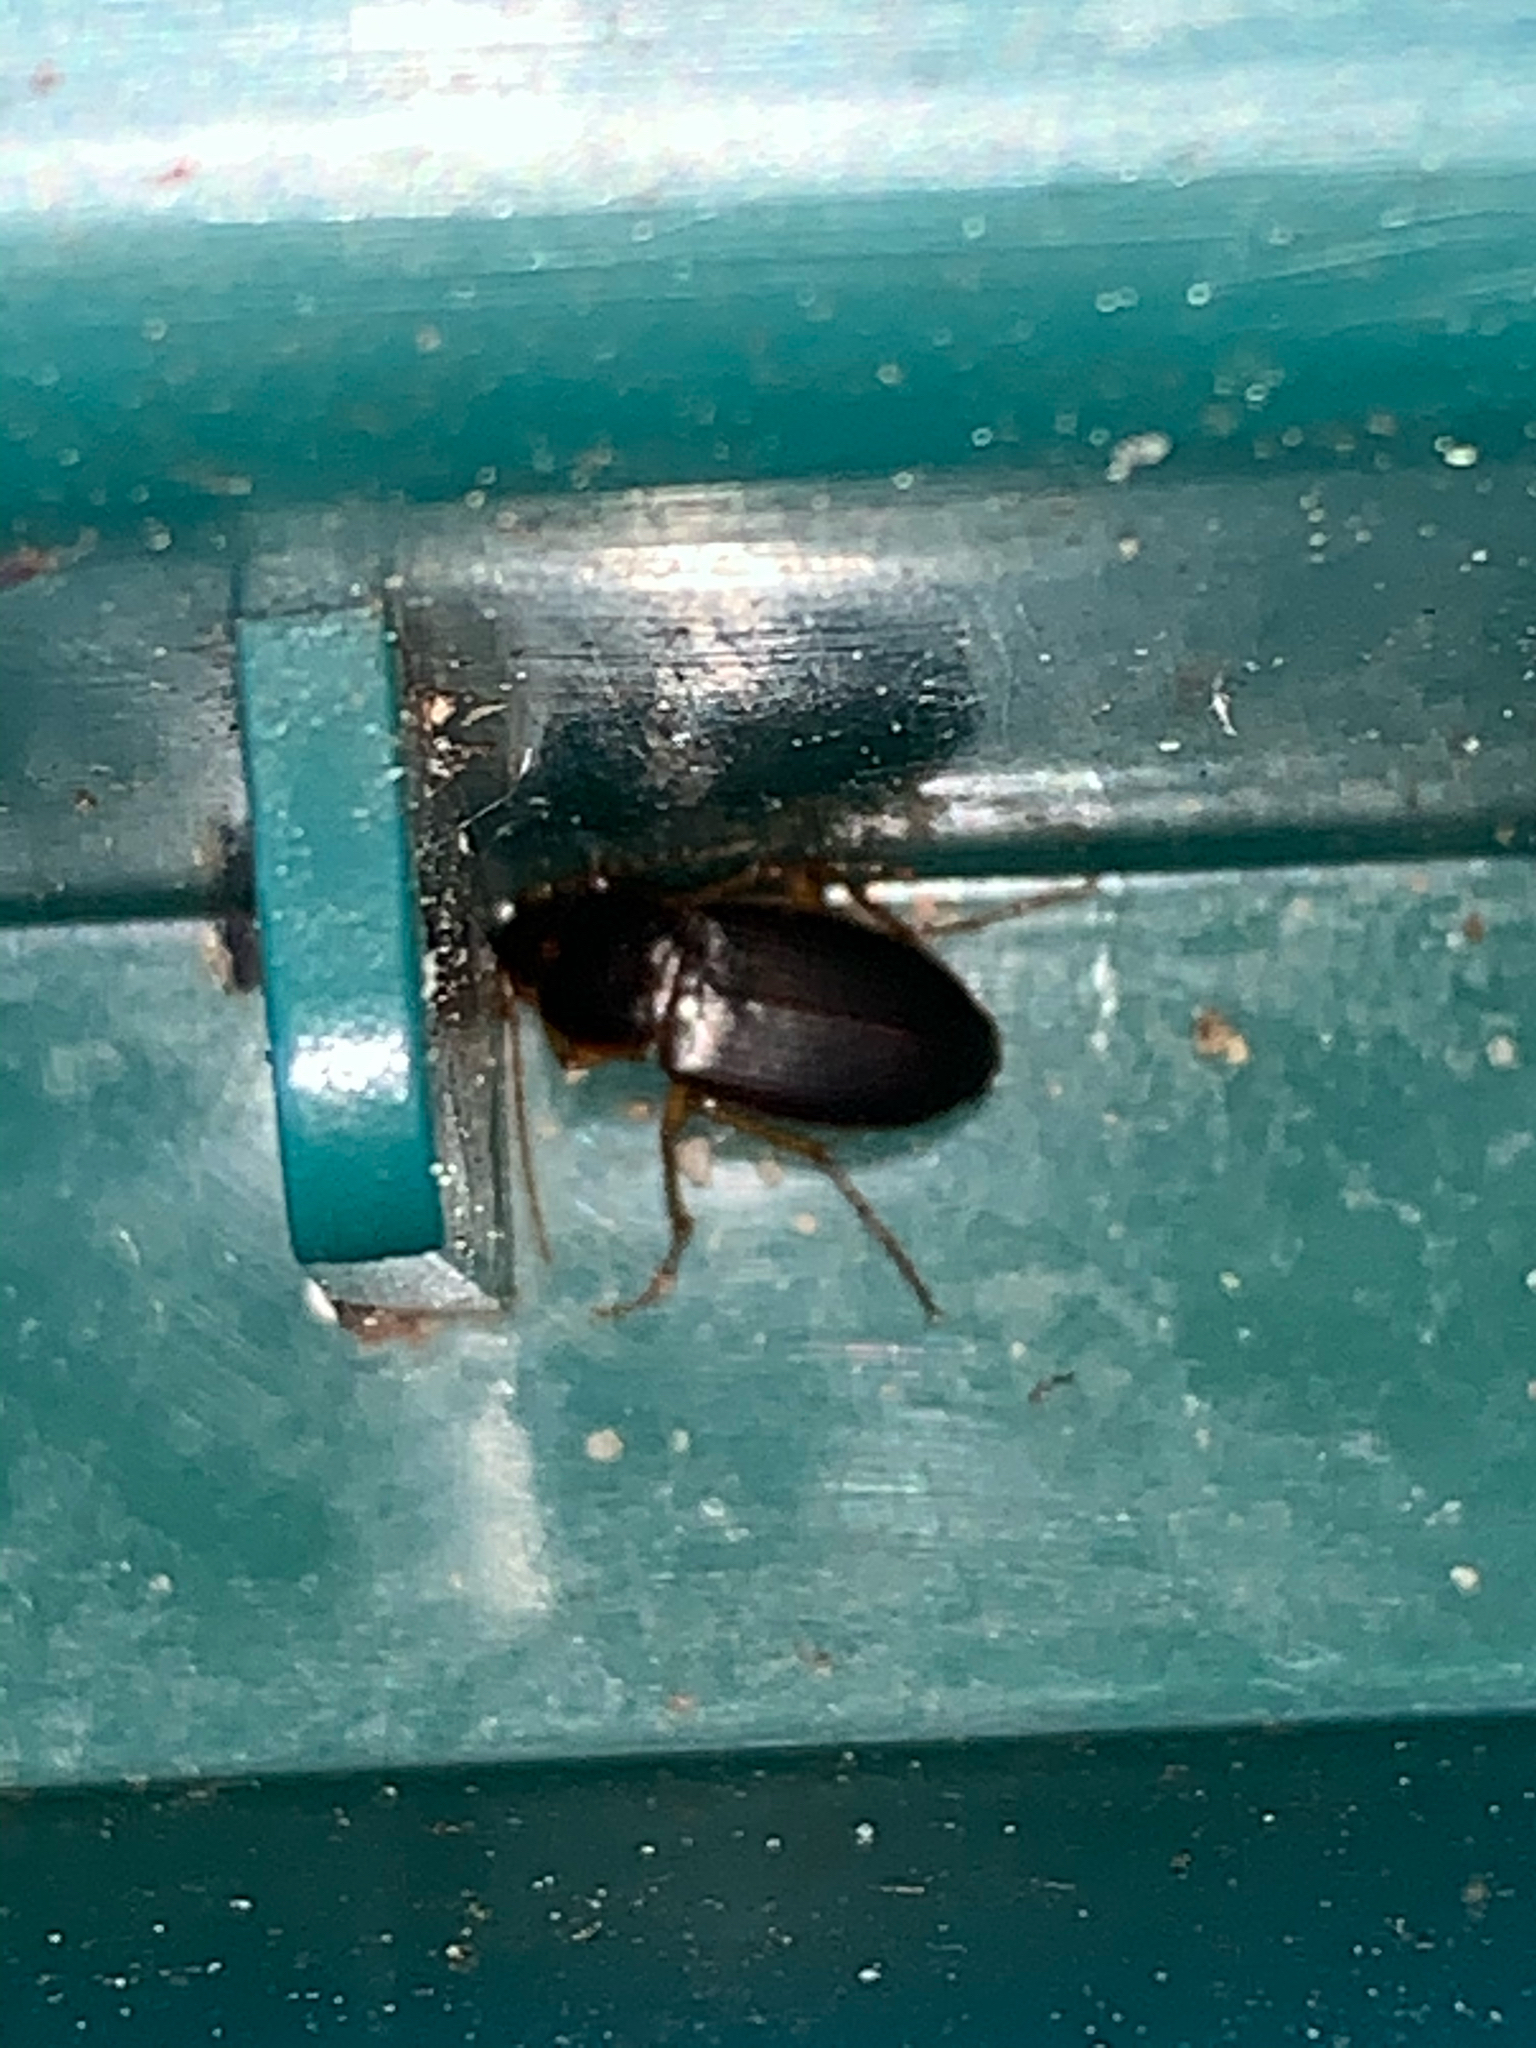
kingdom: Animalia
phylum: Arthropoda
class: Insecta
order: Coleoptera
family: Carabidae
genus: Calathus
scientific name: Calathus
